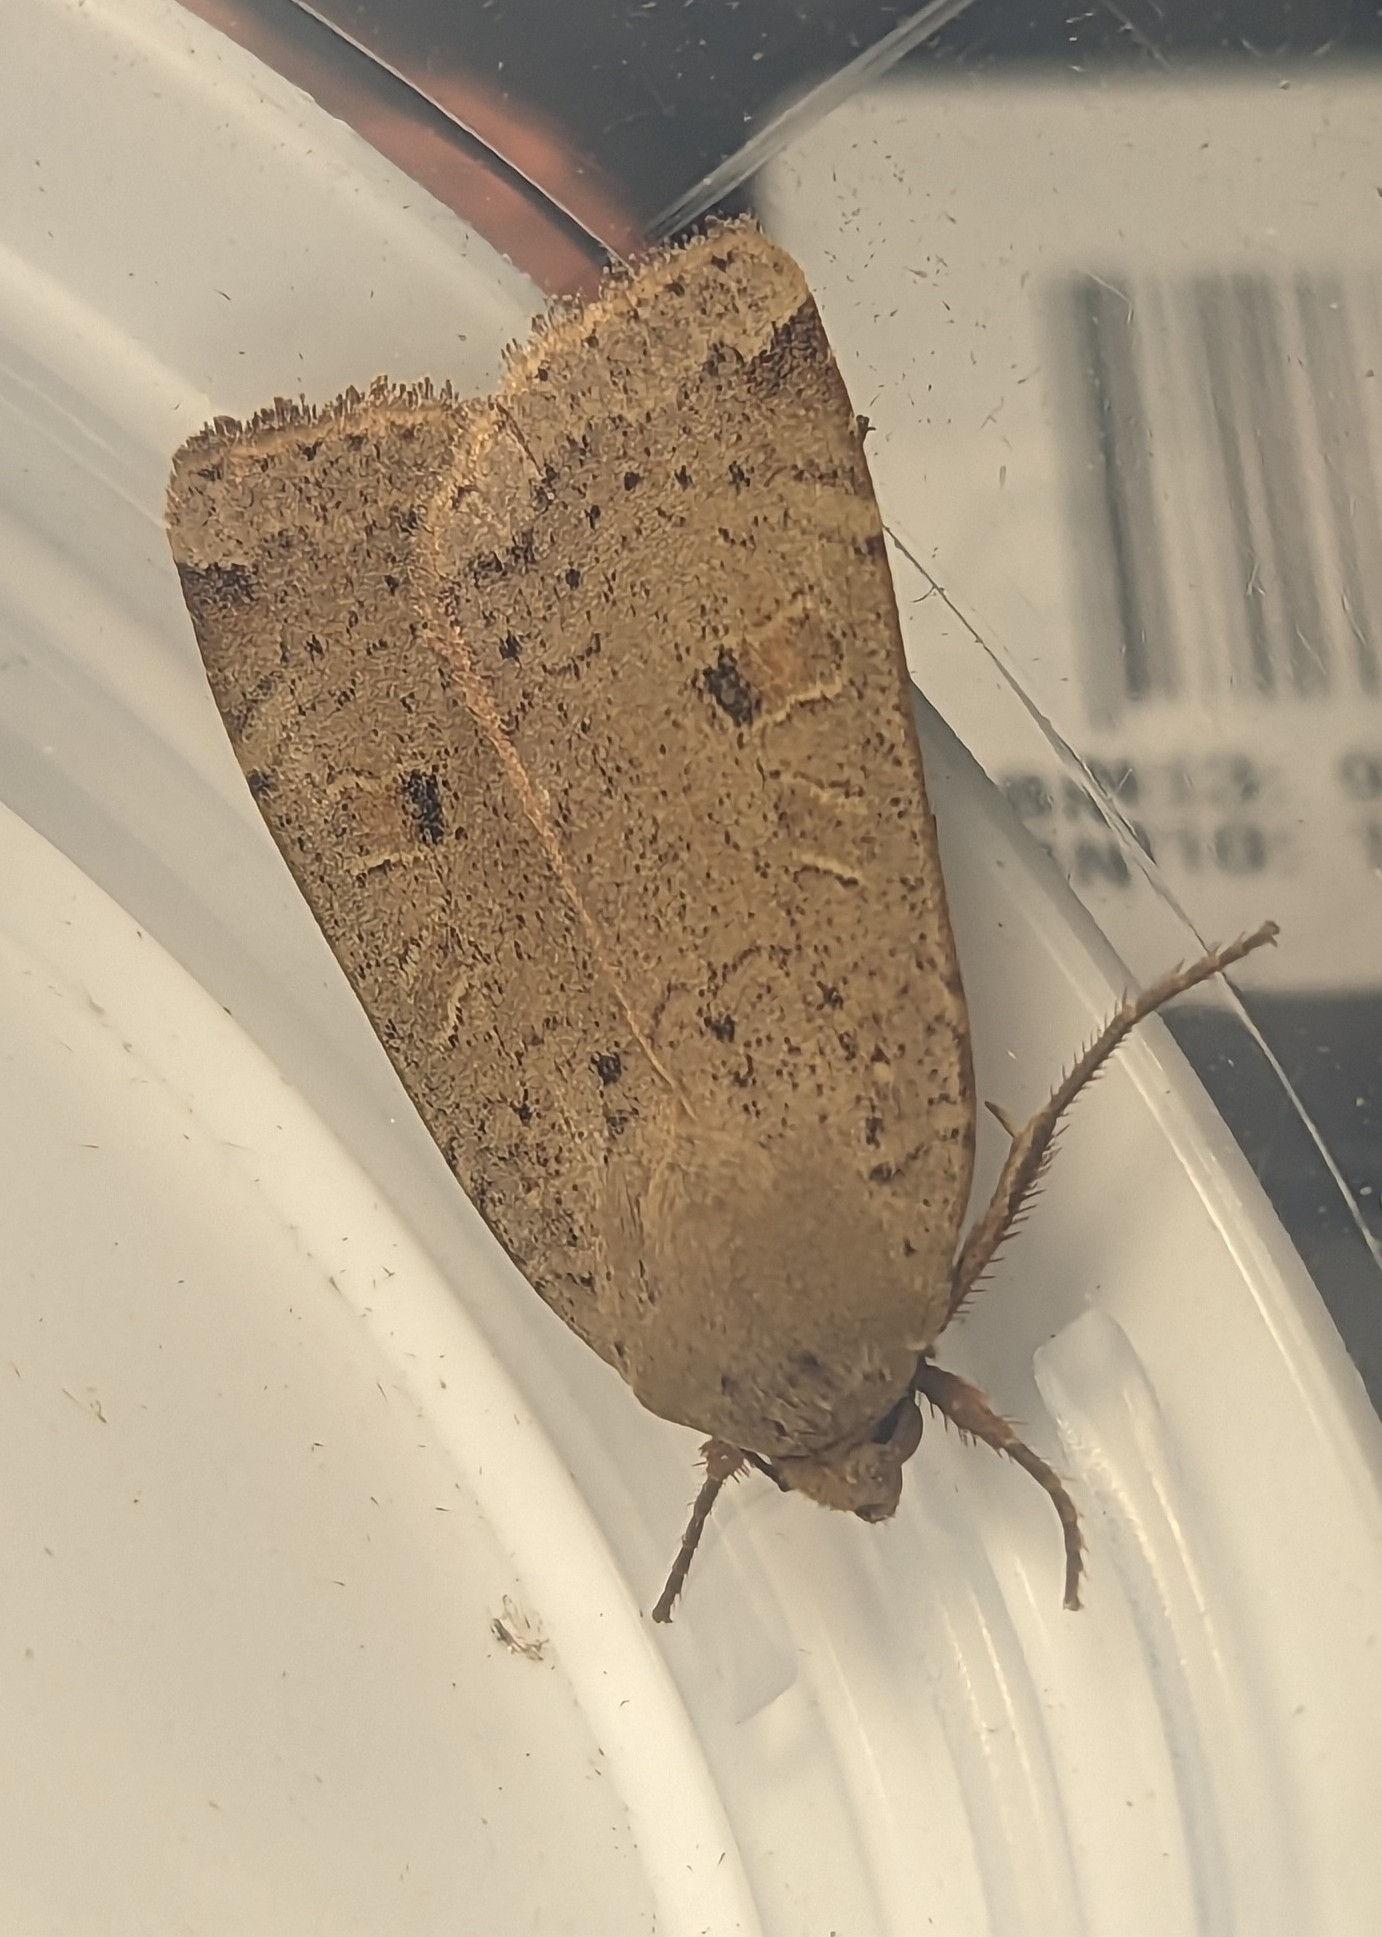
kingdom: Animalia
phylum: Arthropoda
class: Insecta
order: Lepidoptera
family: Noctuidae
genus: Noctua
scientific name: Noctua comes
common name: Lesser yellow underwing
